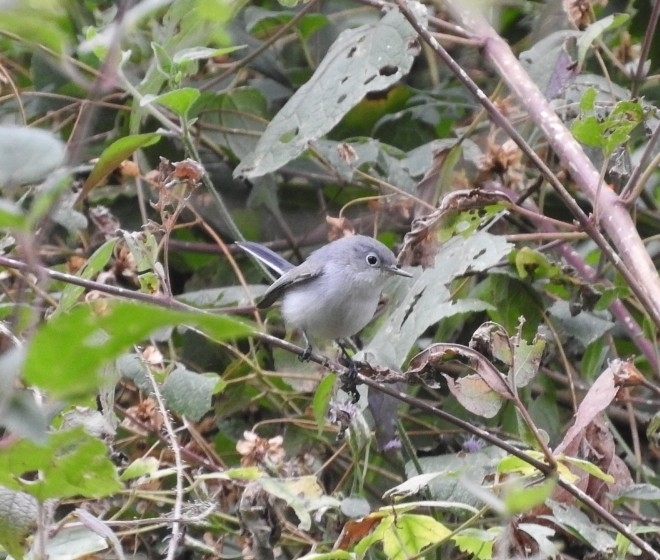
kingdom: Animalia
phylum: Chordata
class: Aves
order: Passeriformes
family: Polioptilidae
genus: Polioptila
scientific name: Polioptila caerulea
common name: Blue-gray gnatcatcher
